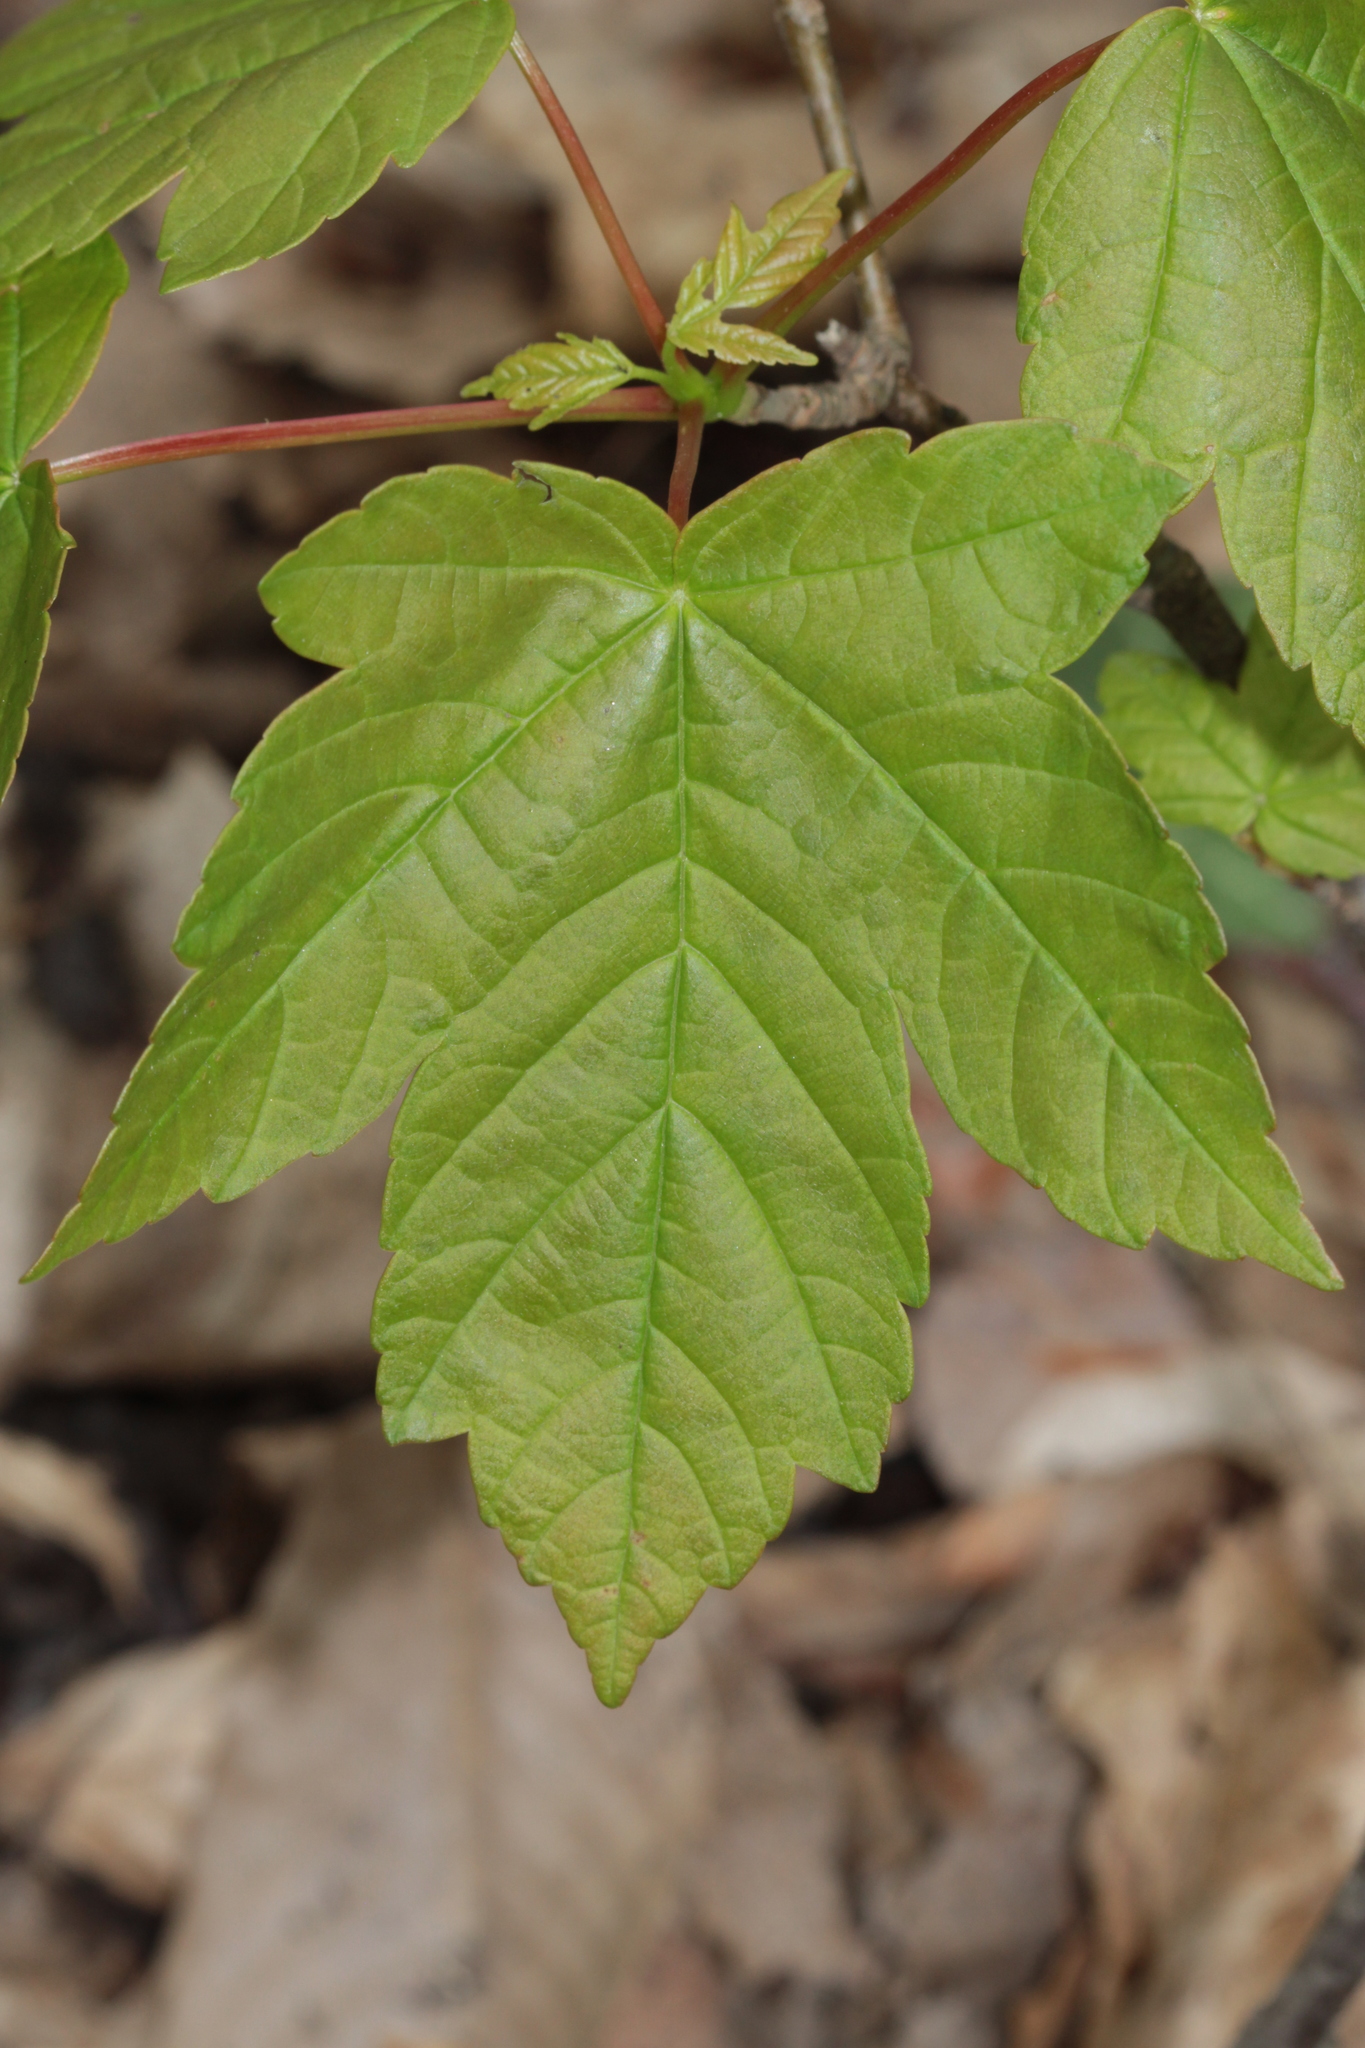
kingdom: Plantae
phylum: Tracheophyta
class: Magnoliopsida
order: Sapindales
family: Sapindaceae
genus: Acer
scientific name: Acer pseudoplatanus
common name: Sycamore
